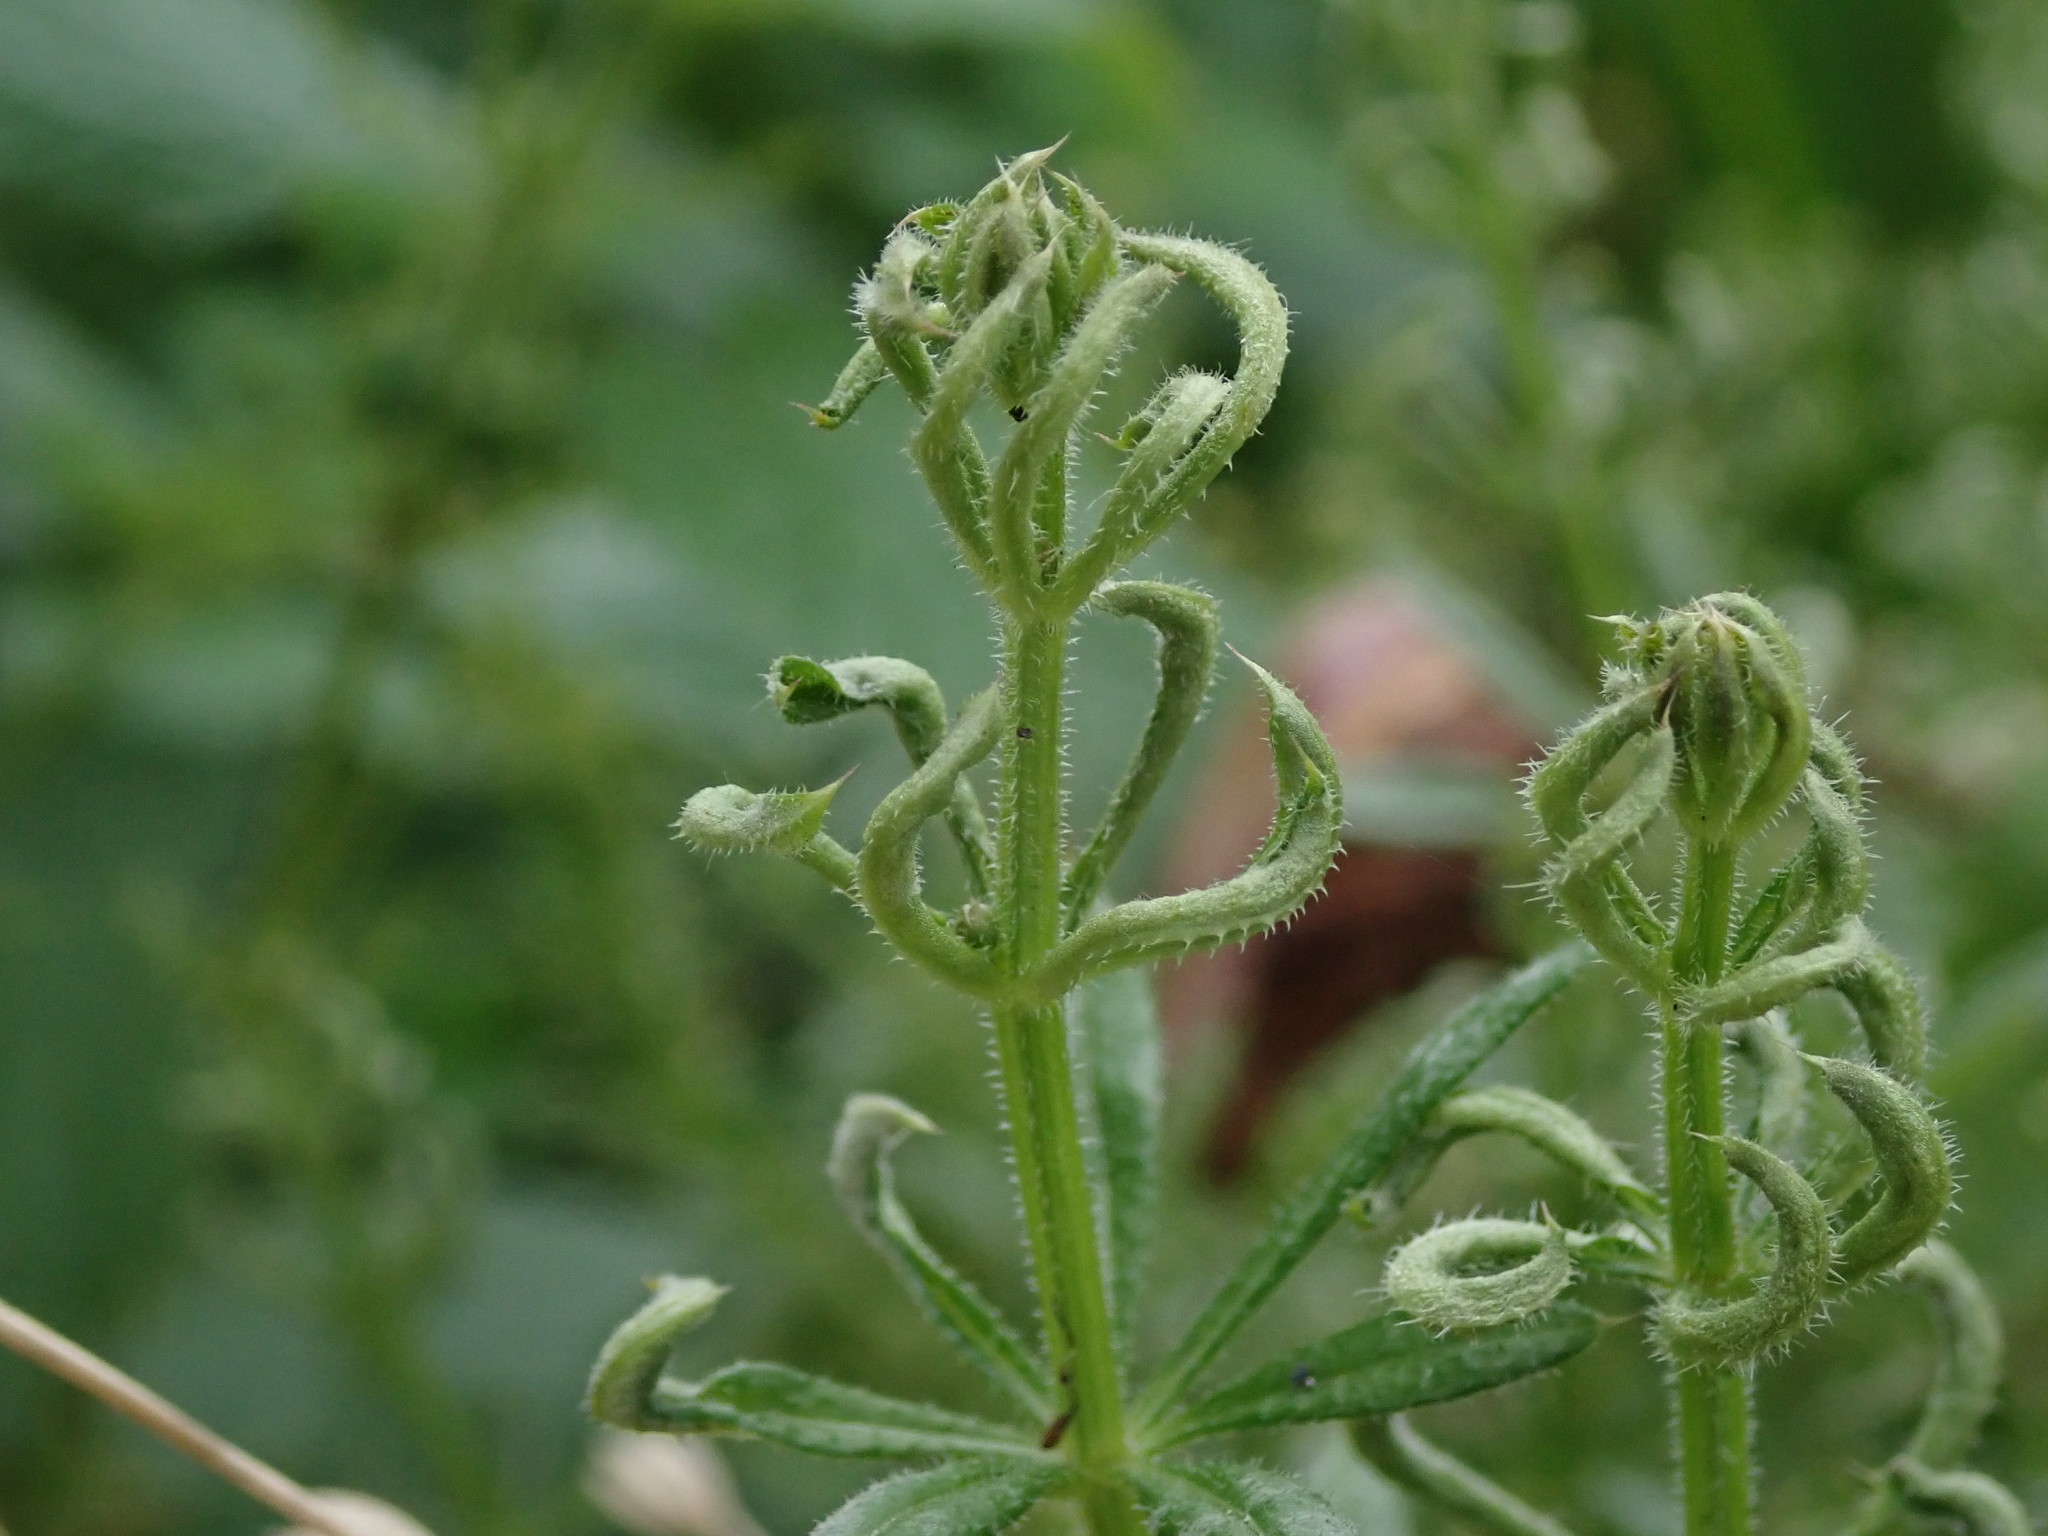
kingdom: Animalia
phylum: Arthropoda
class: Arachnida
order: Trombidiformes
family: Eriophyidae
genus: Cecidophyes
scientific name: Cecidophyes rouhollahi
